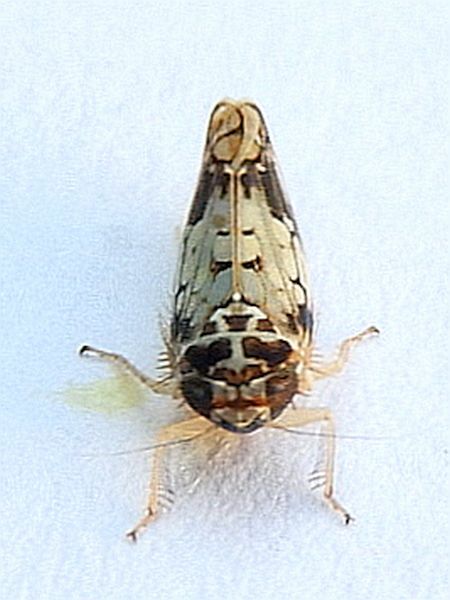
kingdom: Animalia
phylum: Arthropoda
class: Insecta
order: Hemiptera
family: Cicadellidae
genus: Scaphoideus
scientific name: Scaphoideus obtusus
